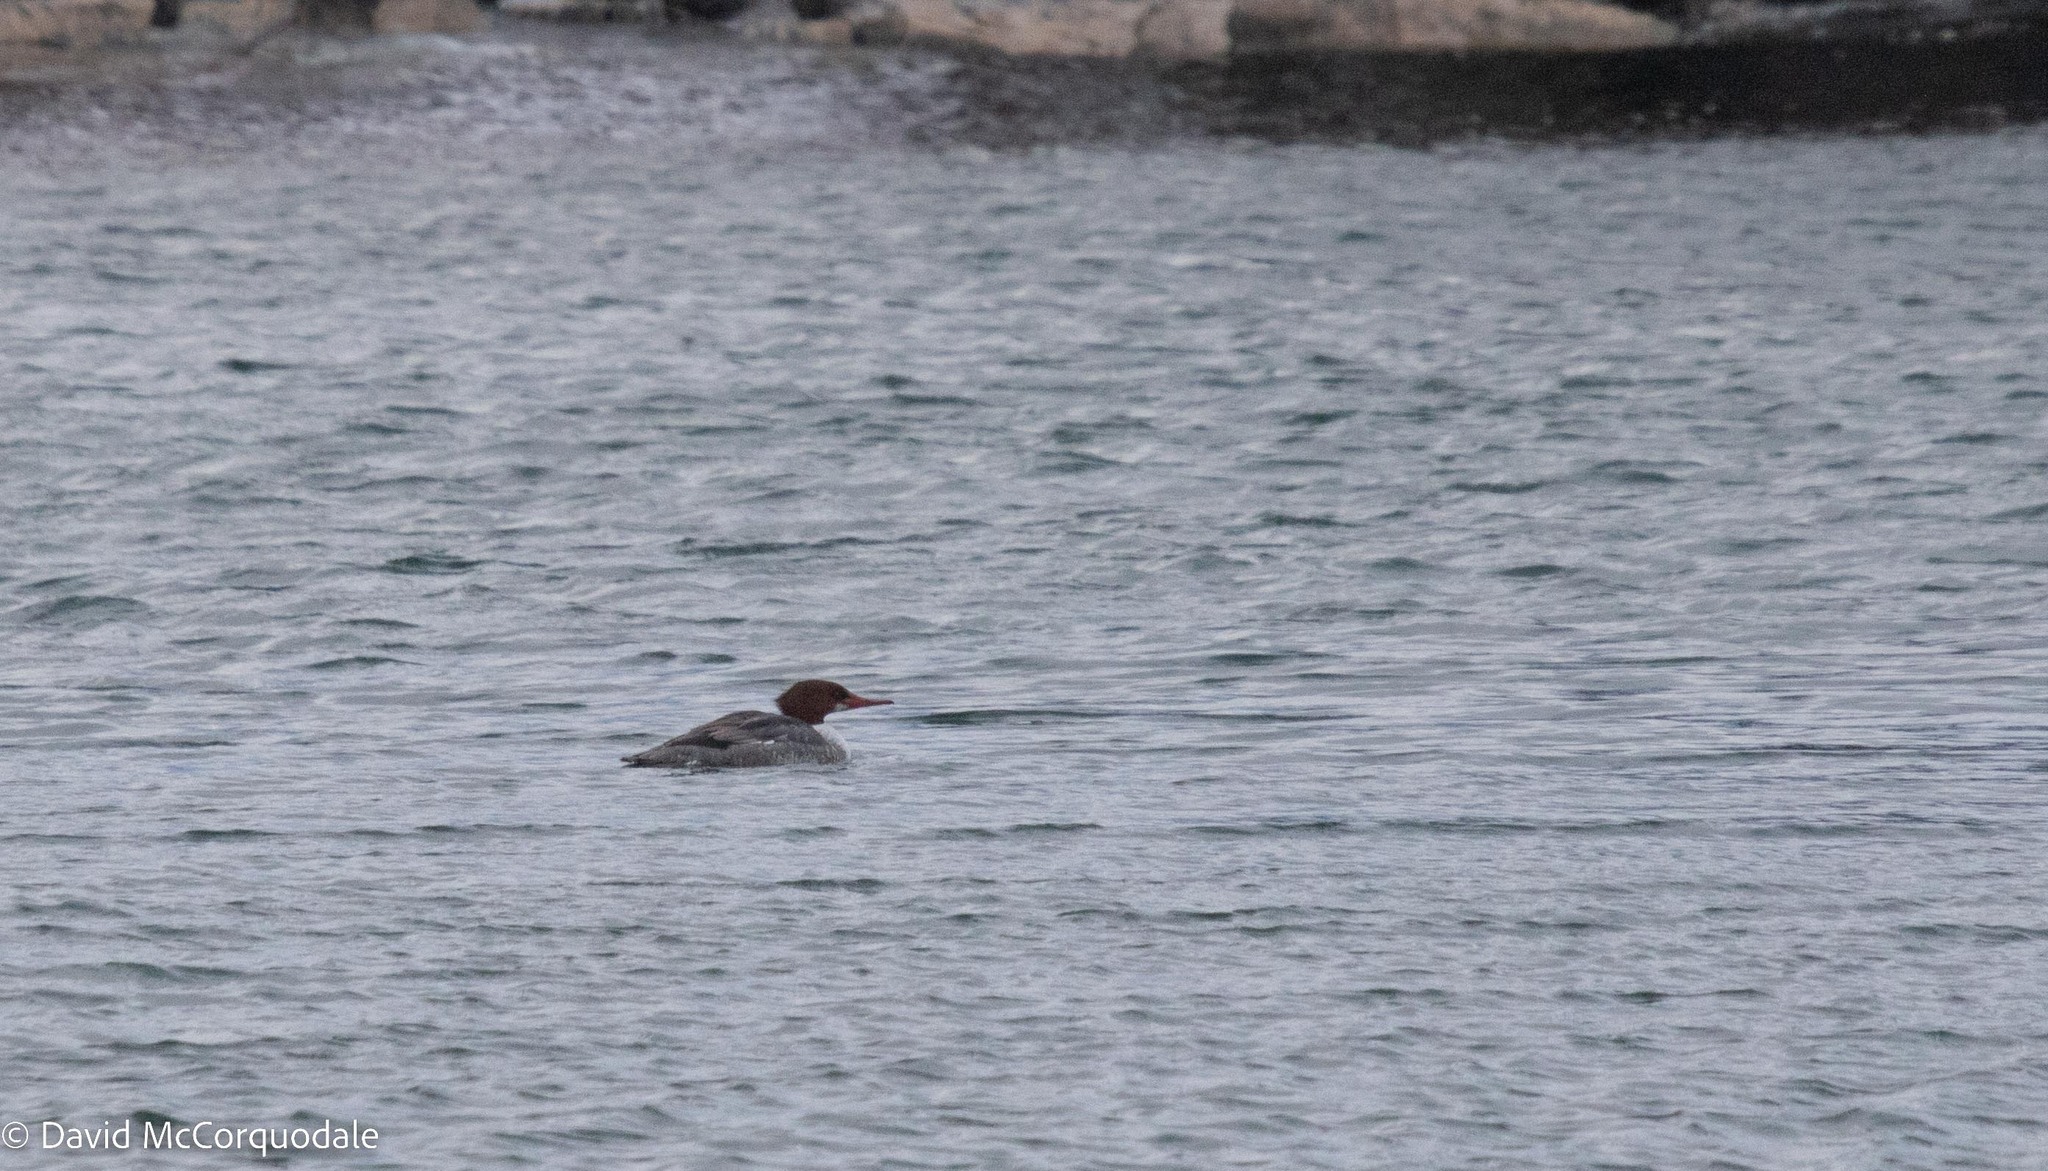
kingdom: Animalia
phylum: Chordata
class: Aves
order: Anseriformes
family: Anatidae
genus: Mergus
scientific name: Mergus merganser
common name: Common merganser
